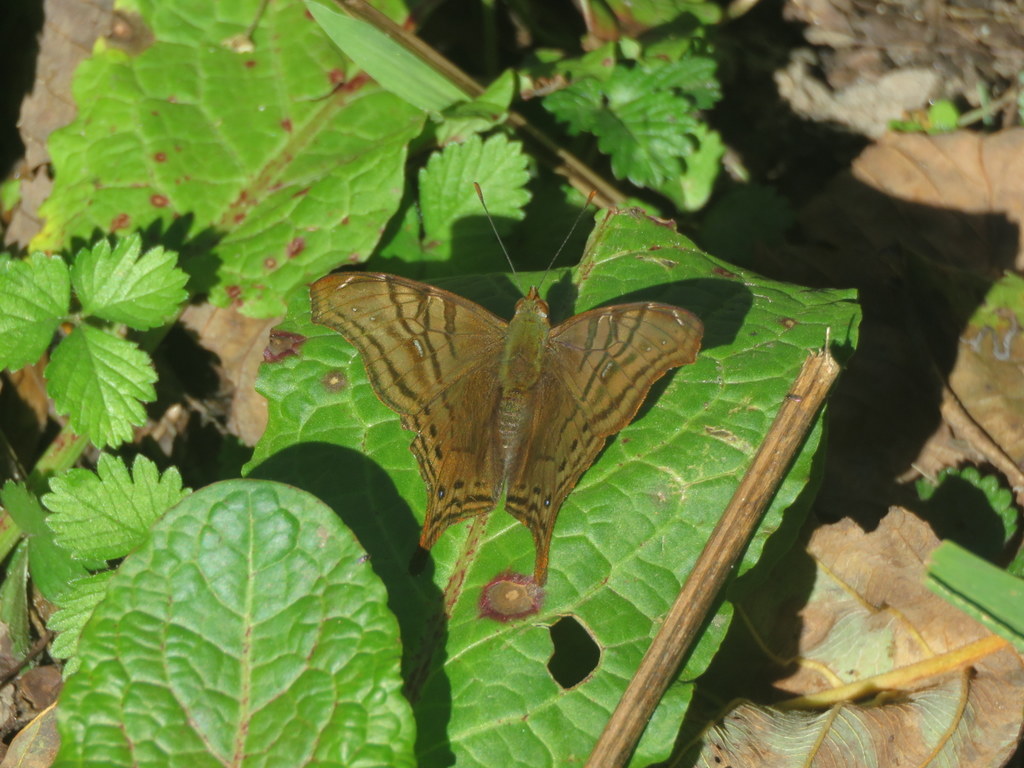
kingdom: Animalia
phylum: Arthropoda
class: Insecta
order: Lepidoptera
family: Nymphalidae
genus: Hypanartia
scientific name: Hypanartia dione
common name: Banded mapwing
